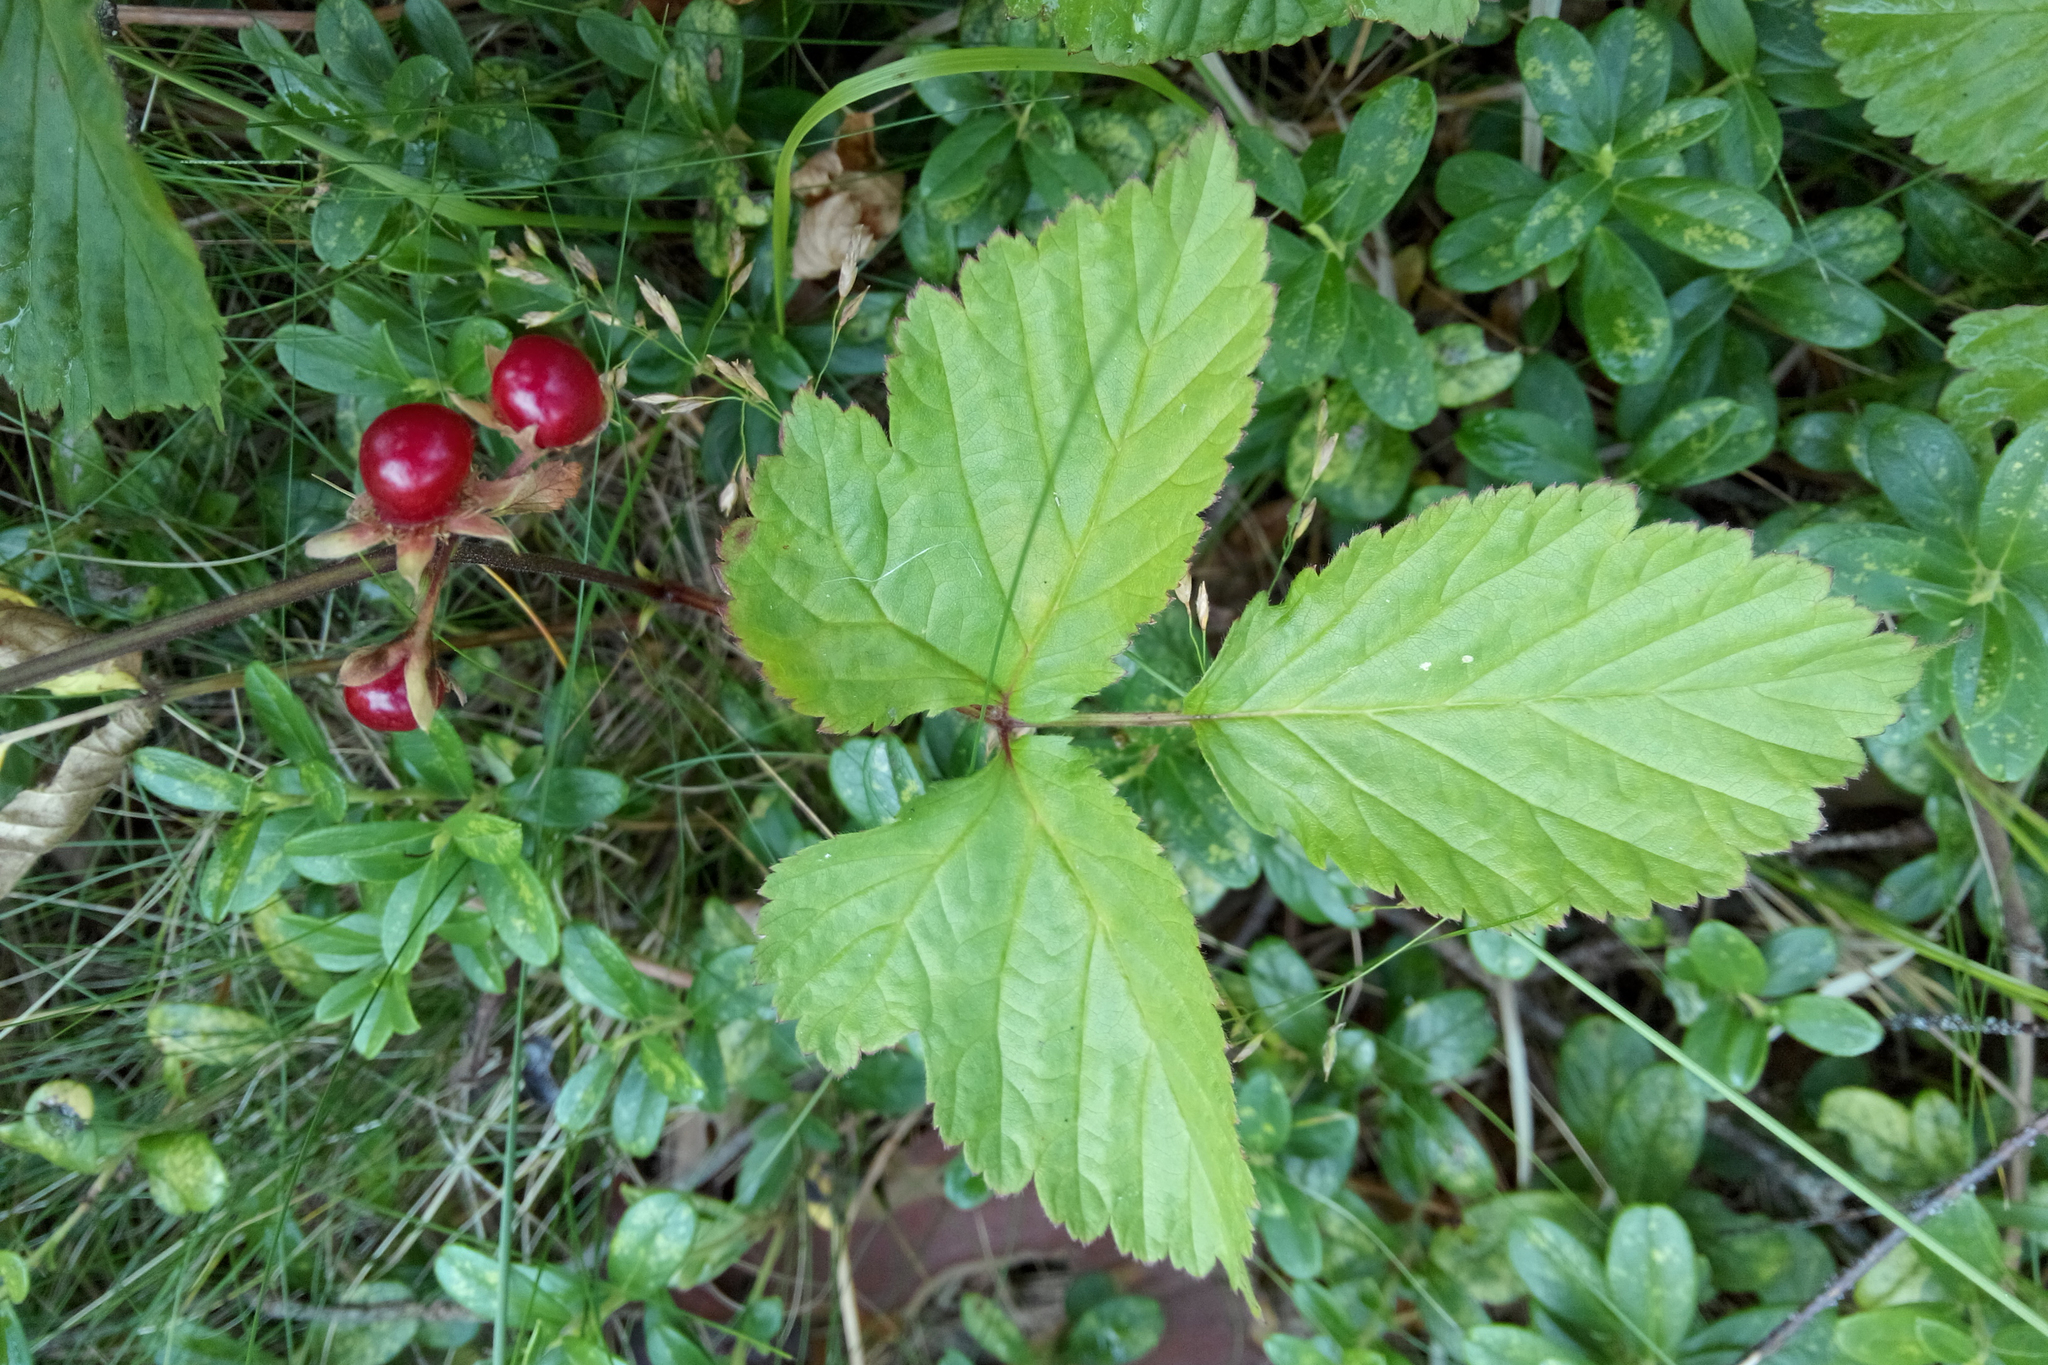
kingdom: Plantae
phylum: Tracheophyta
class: Magnoliopsida
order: Rosales
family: Rosaceae
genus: Rubus
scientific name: Rubus saxatilis
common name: Stone bramble
